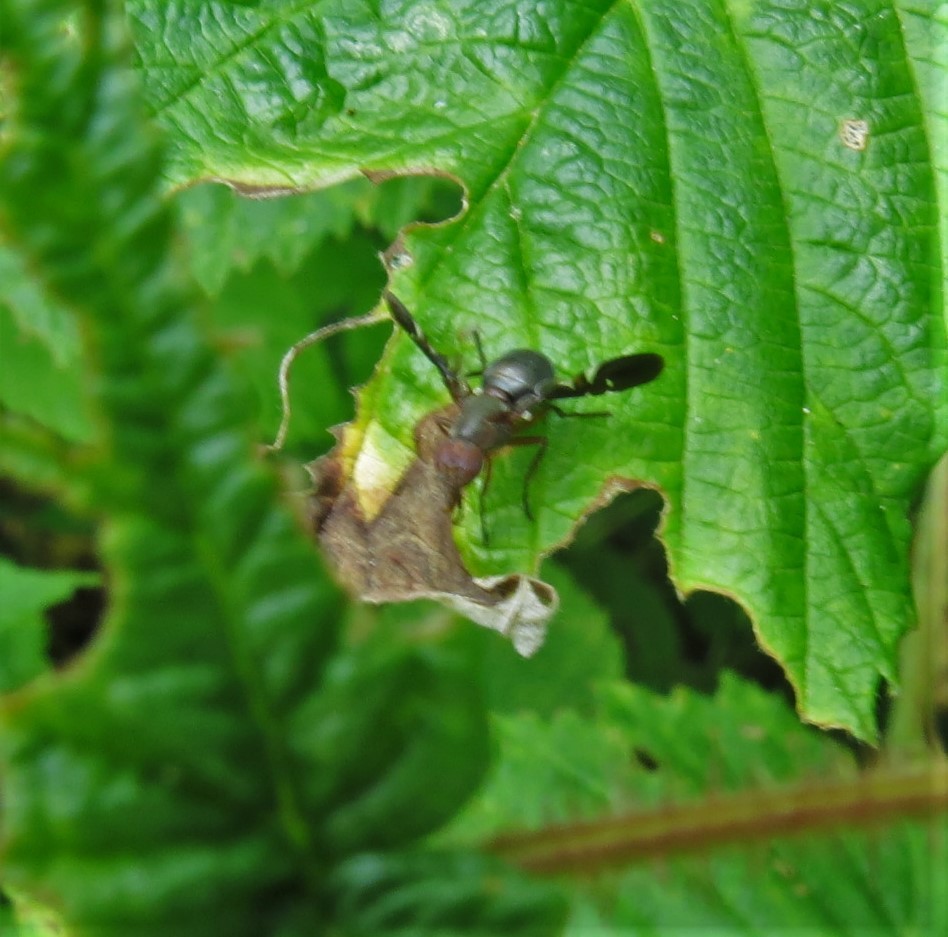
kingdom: Animalia
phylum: Arthropoda
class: Insecta
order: Diptera
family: Ulidiidae
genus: Delphinia
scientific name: Delphinia picta
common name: Common picture-winged fly
